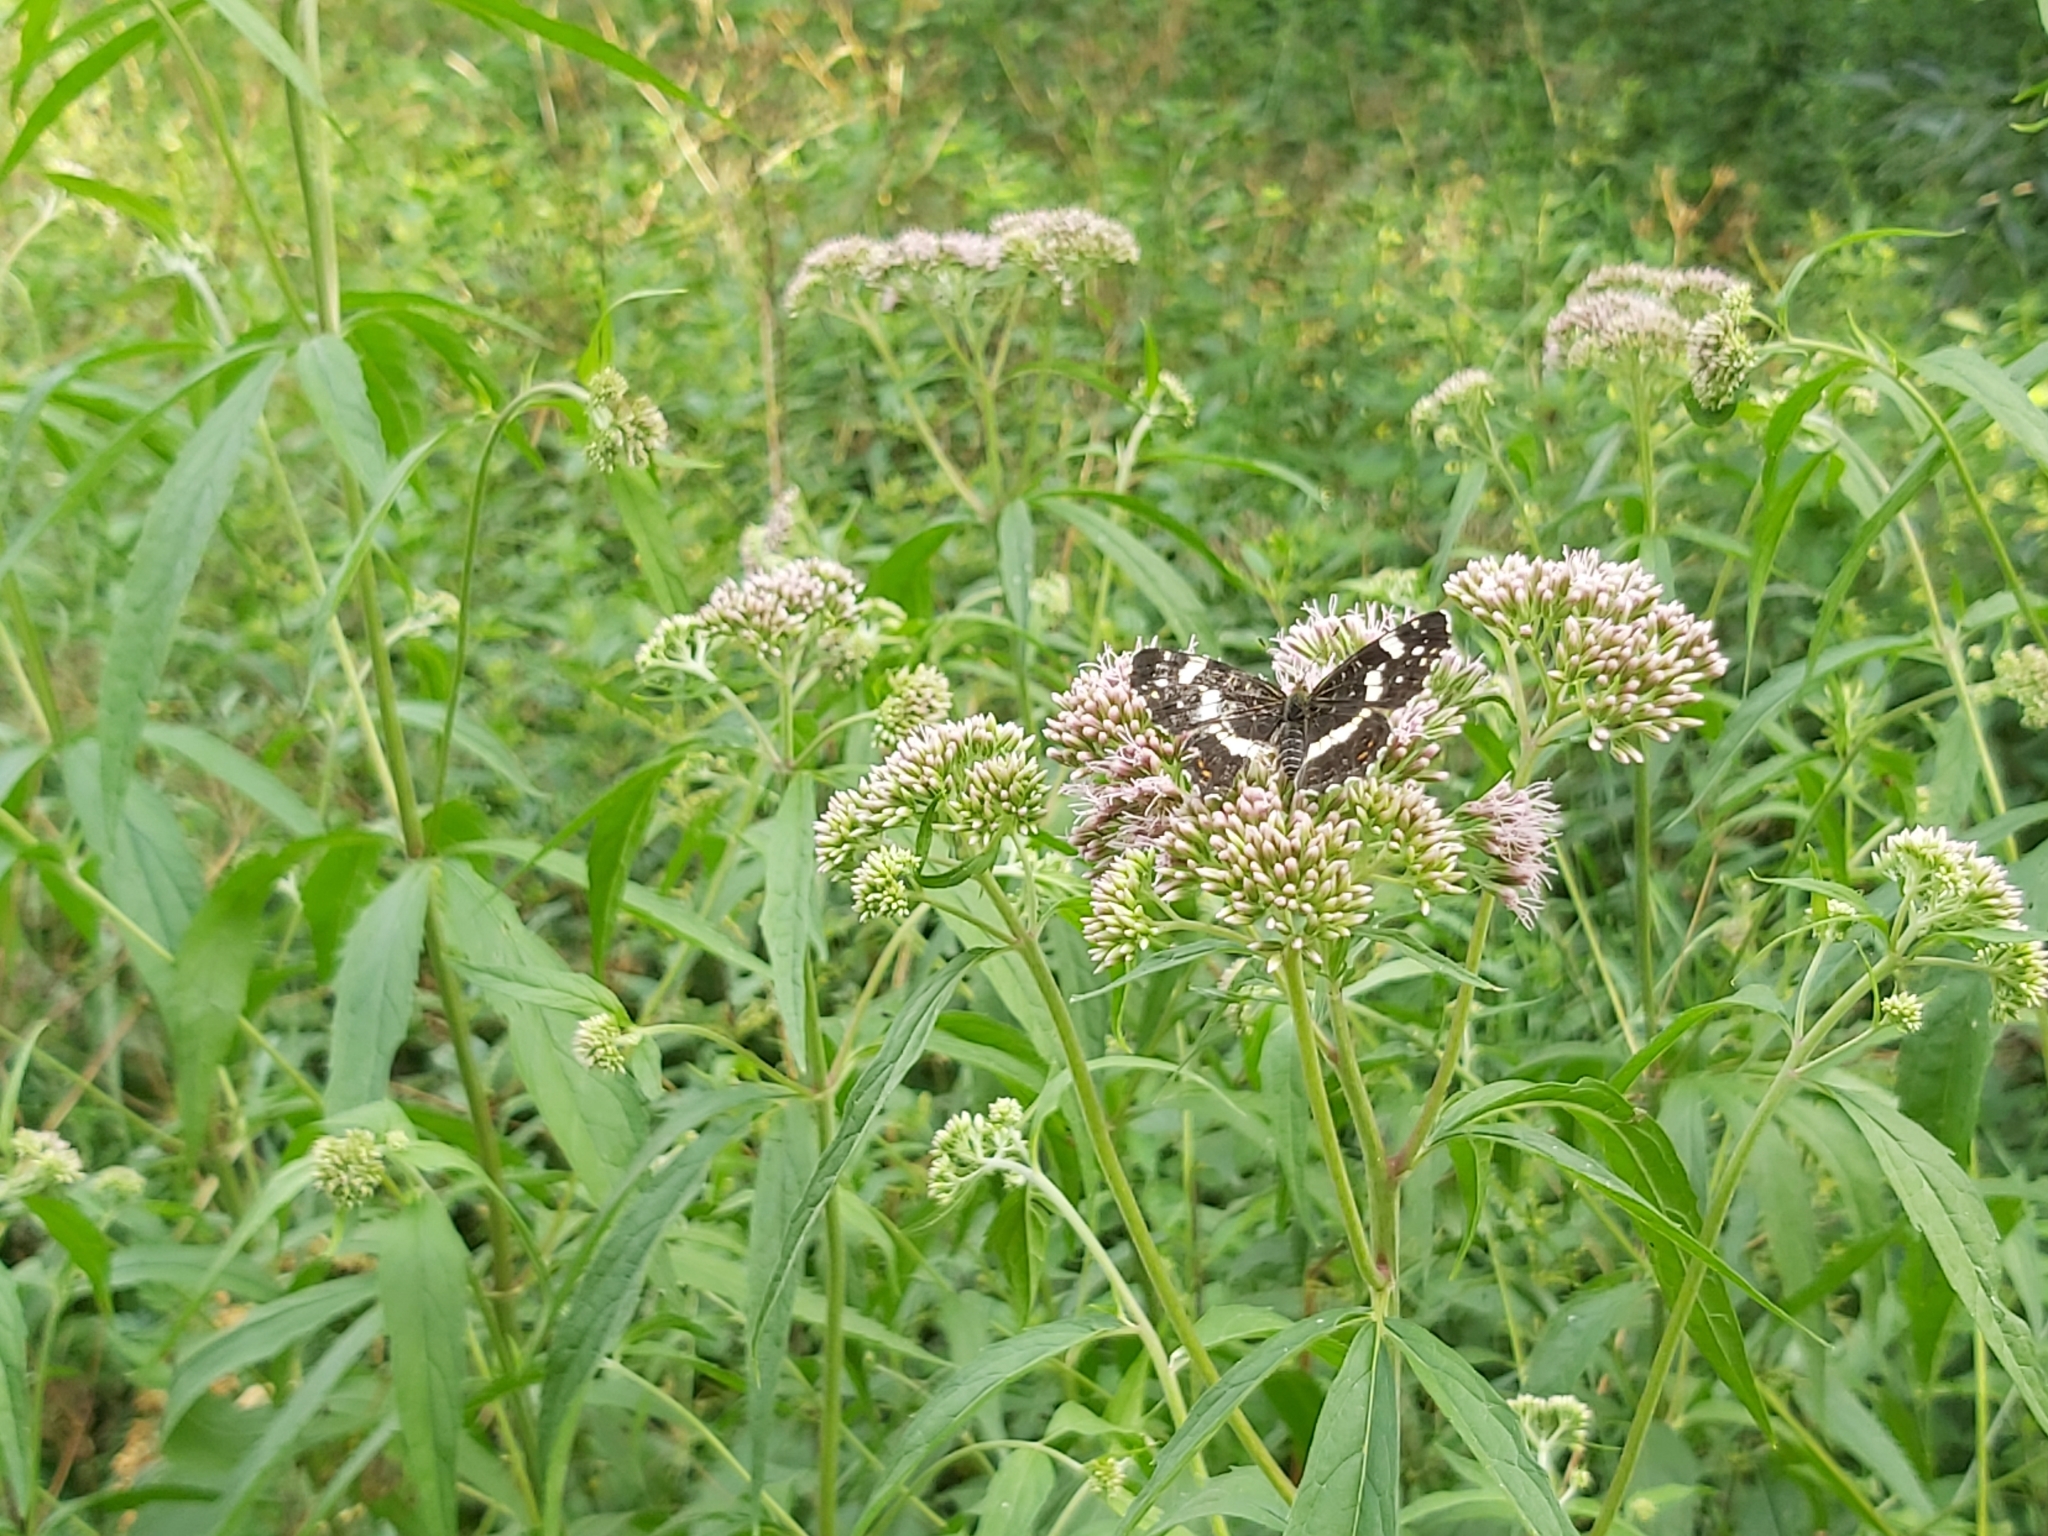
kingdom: Animalia
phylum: Arthropoda
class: Insecta
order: Lepidoptera
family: Nymphalidae
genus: Araschnia
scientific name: Araschnia levana
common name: Map butterfly
